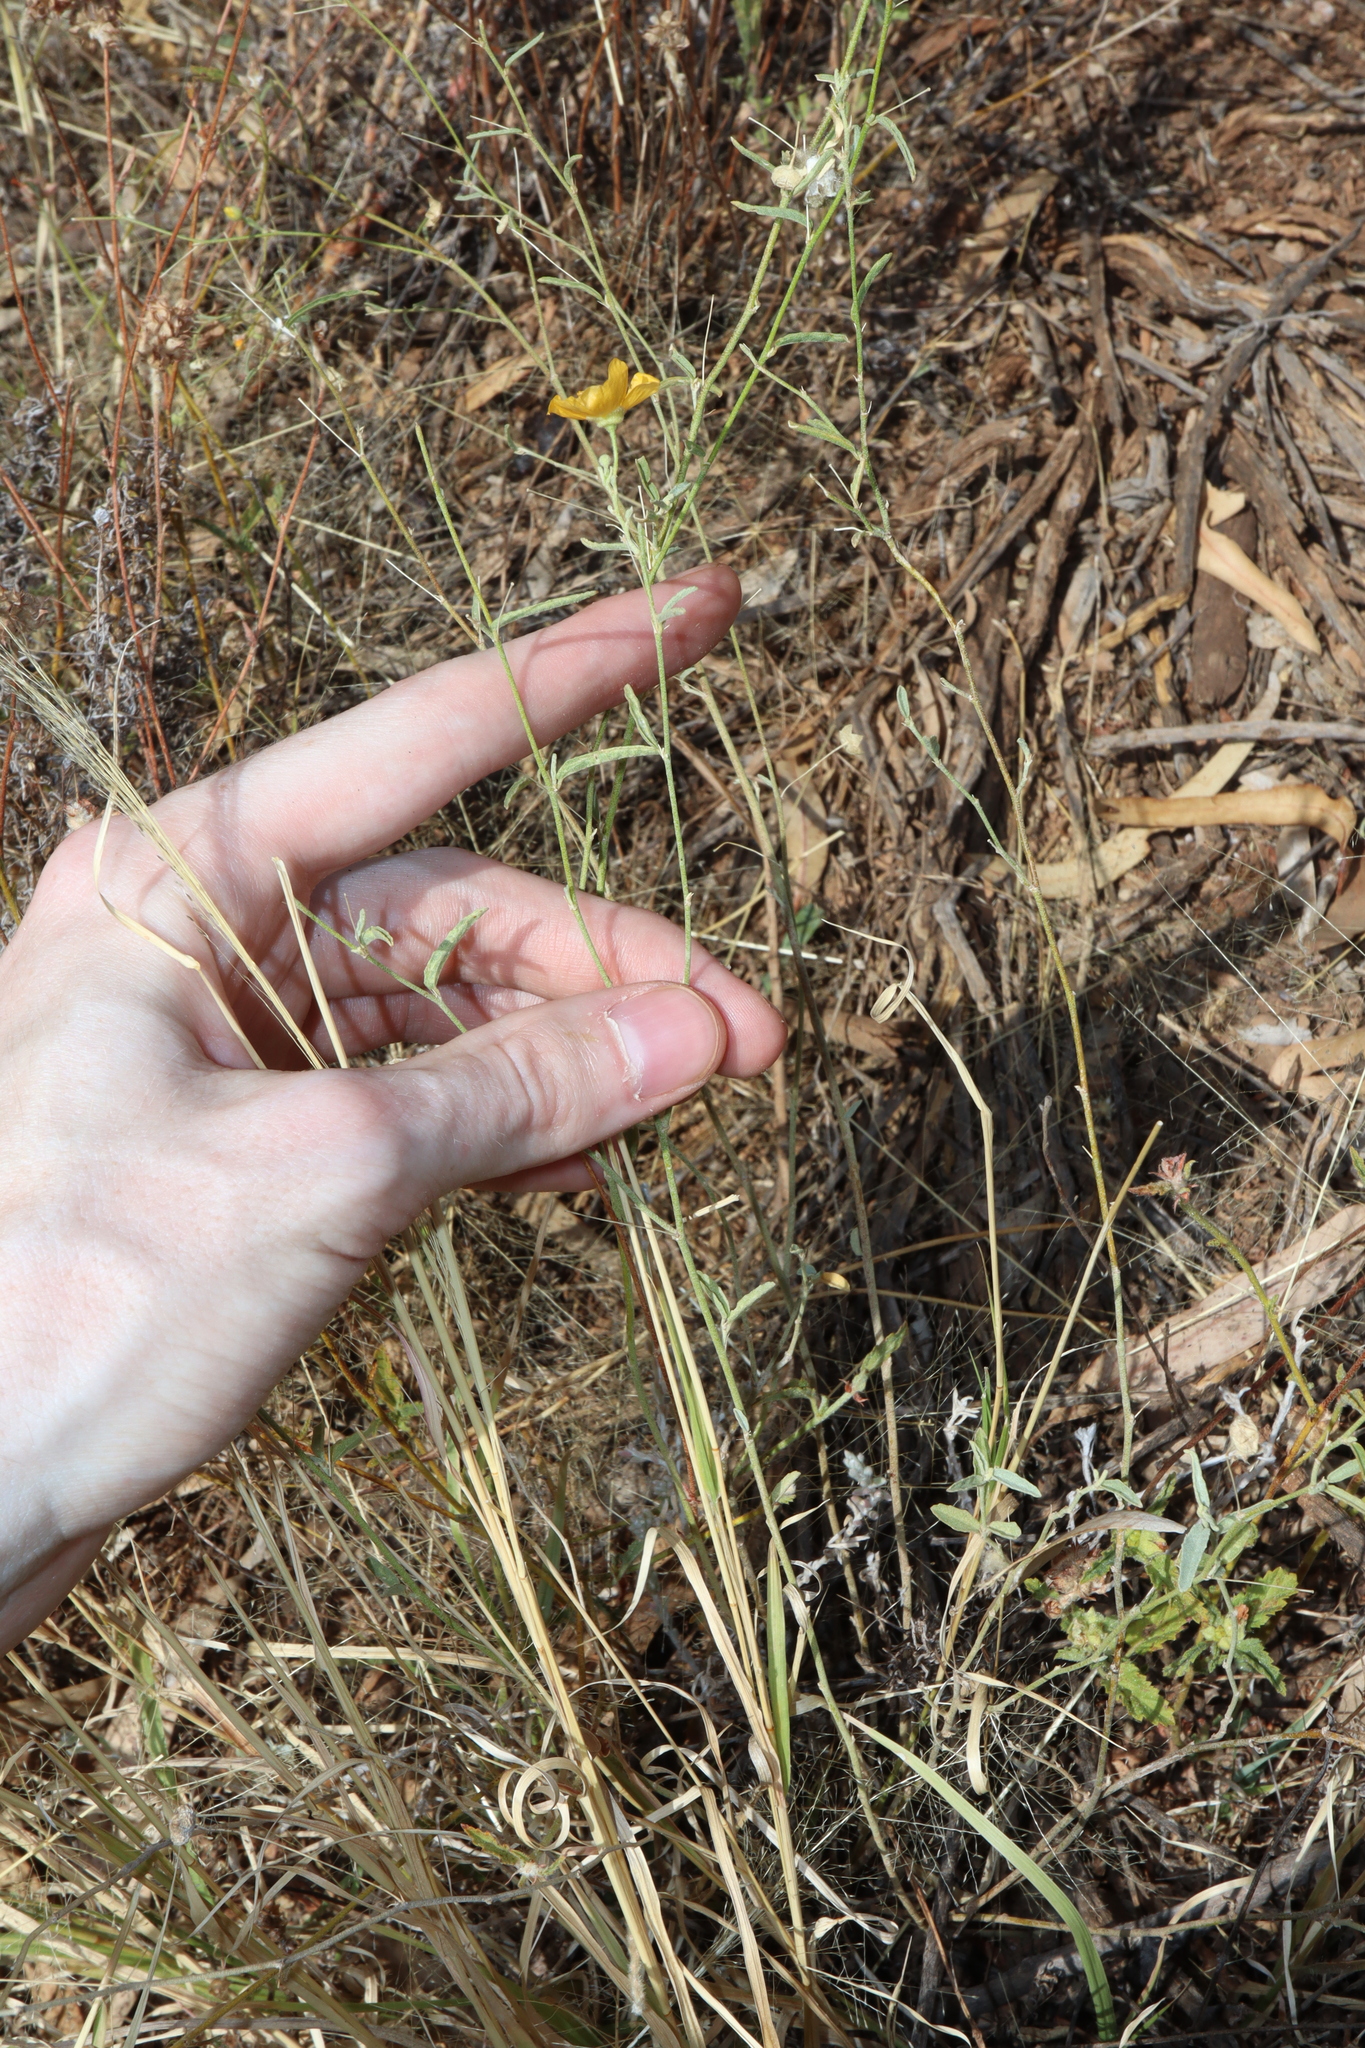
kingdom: Plantae
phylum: Tracheophyta
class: Magnoliopsida
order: Malvales
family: Malvaceae
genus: Sida
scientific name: Sida trichopoda
